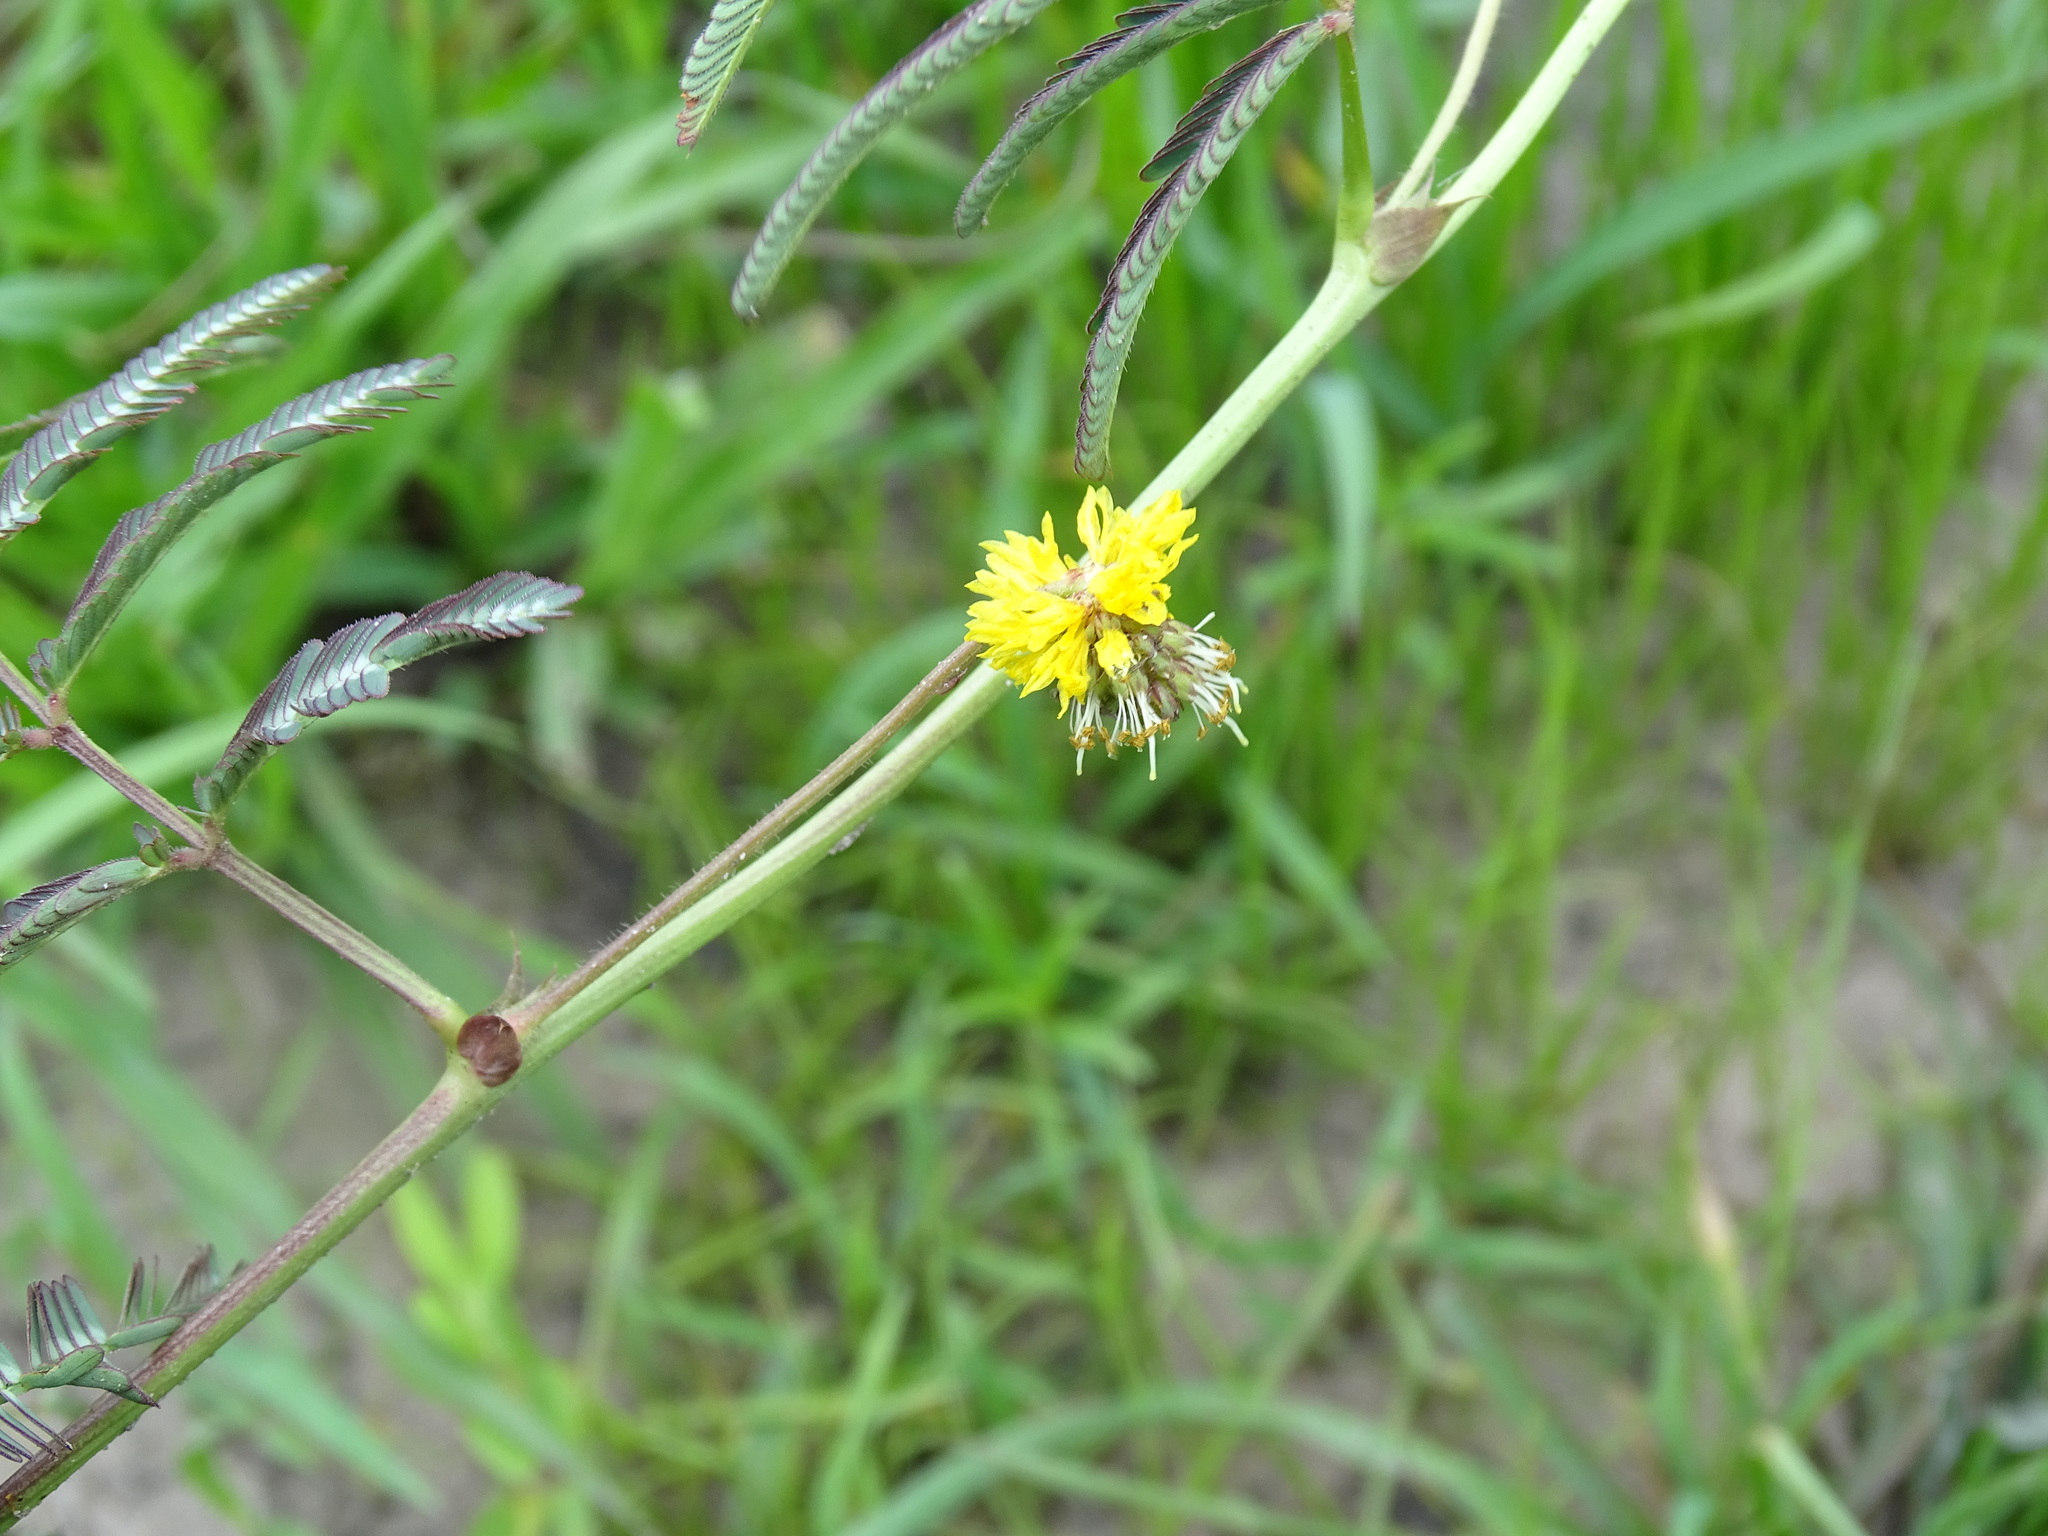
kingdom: Plantae
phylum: Tracheophyta
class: Magnoliopsida
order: Fabales
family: Fabaceae
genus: Neptunia
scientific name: Neptunia plena
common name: Dead and awake
